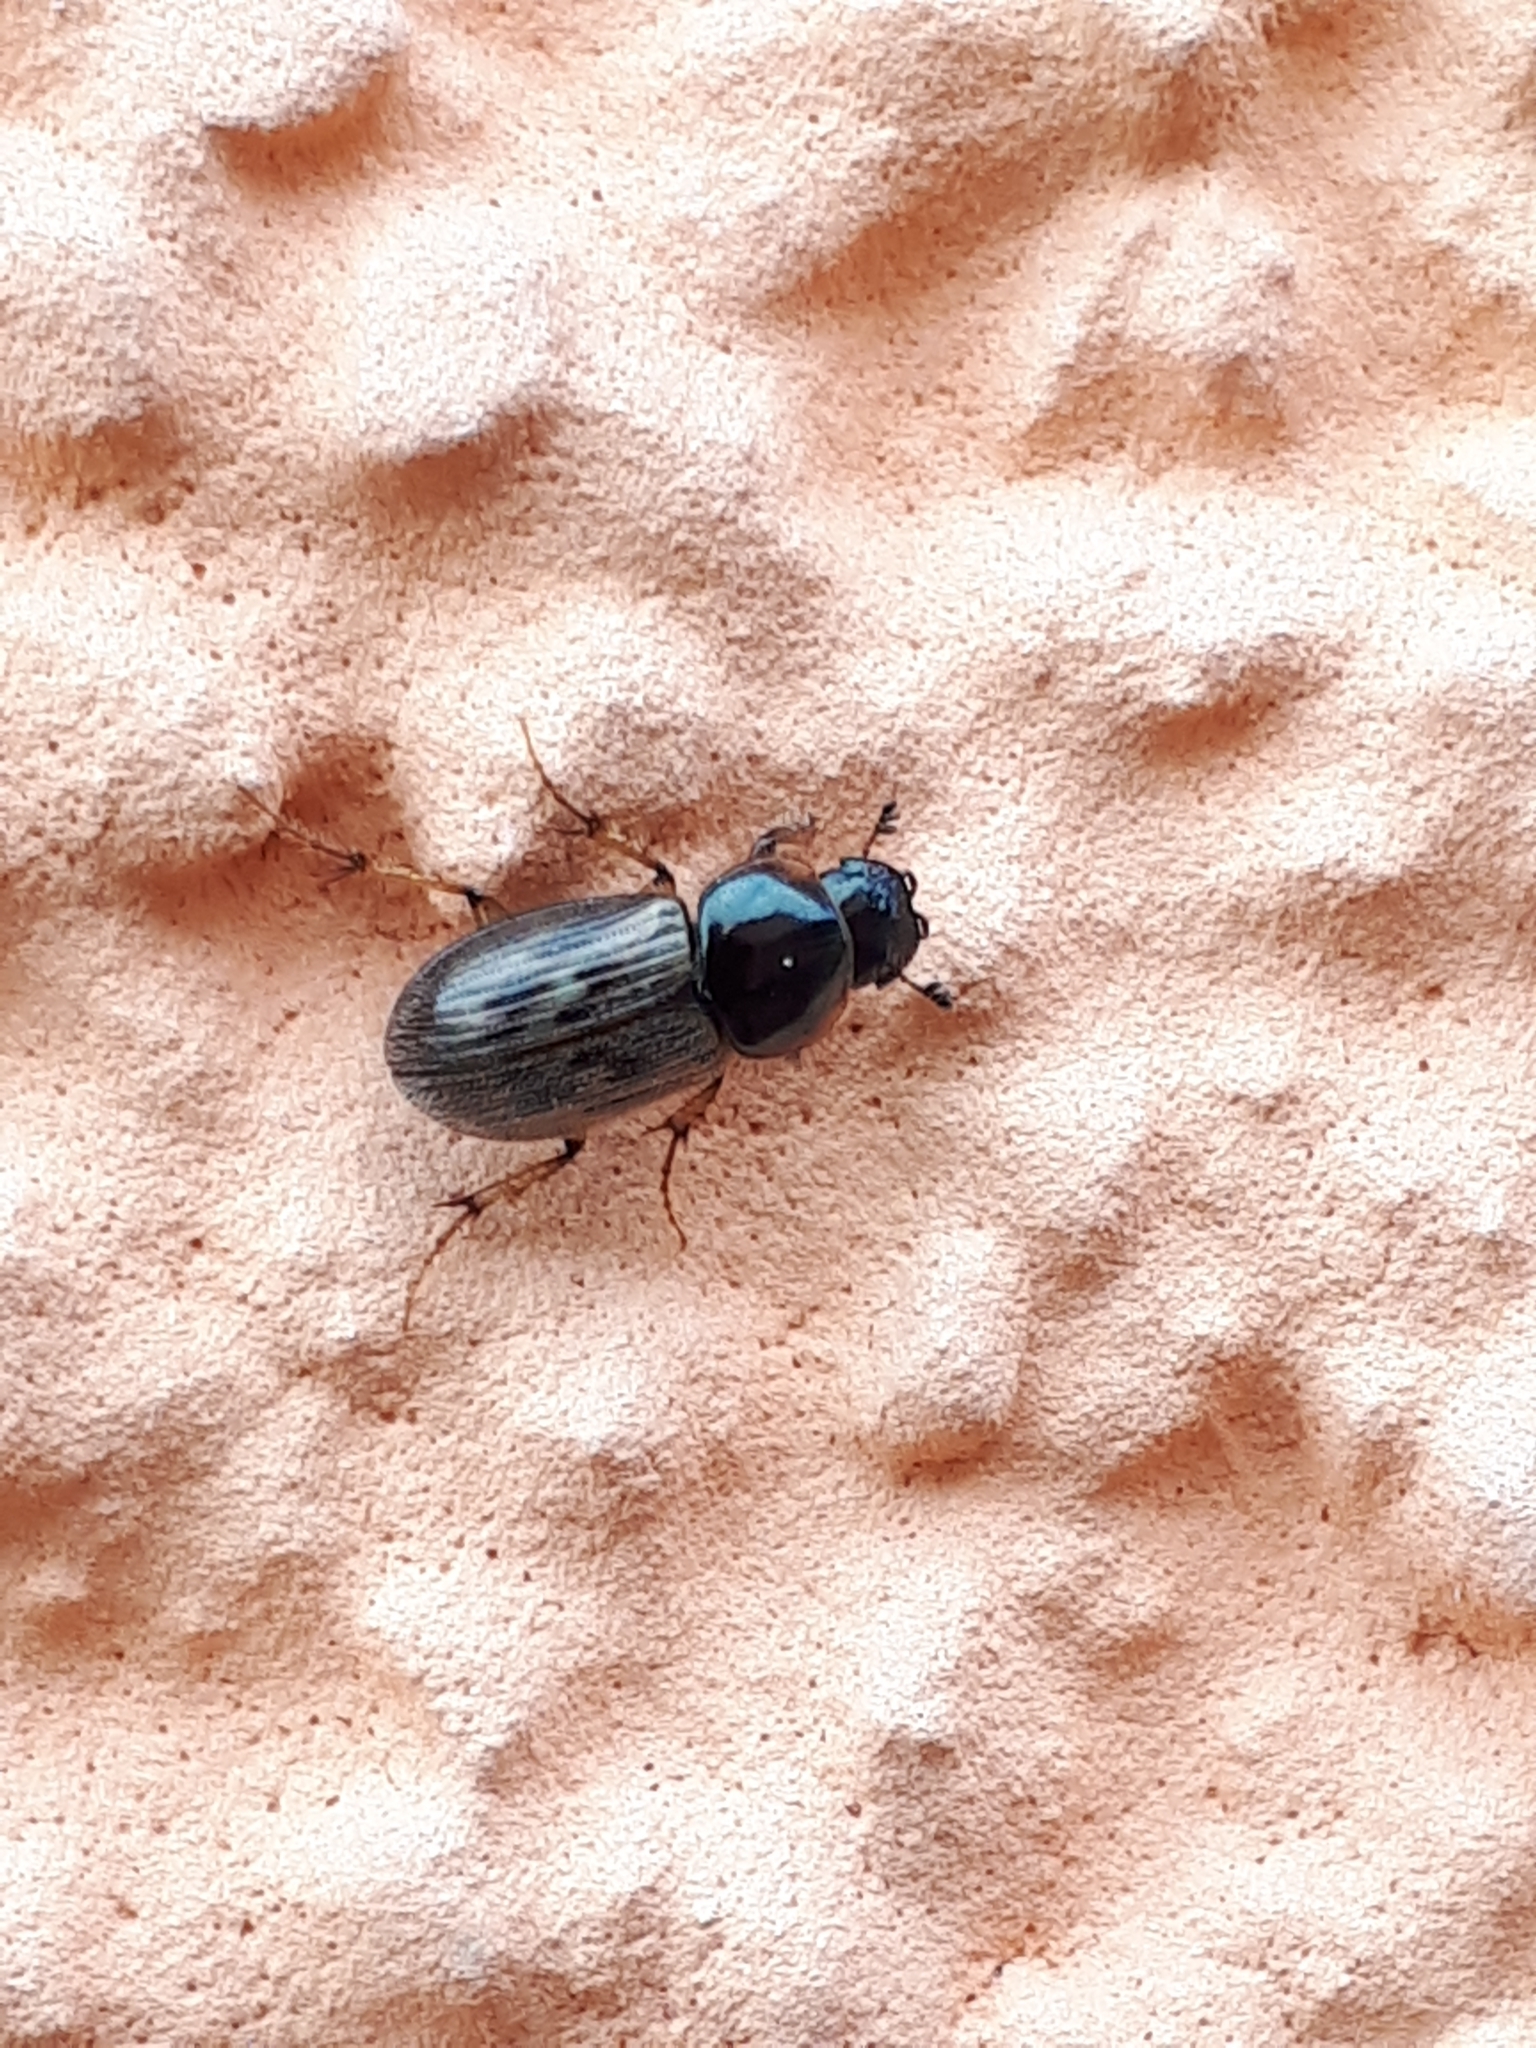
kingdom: Animalia
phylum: Arthropoda
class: Insecta
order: Coleoptera
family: Scarabaeidae
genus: Nimbus
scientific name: Nimbus contaminatus
